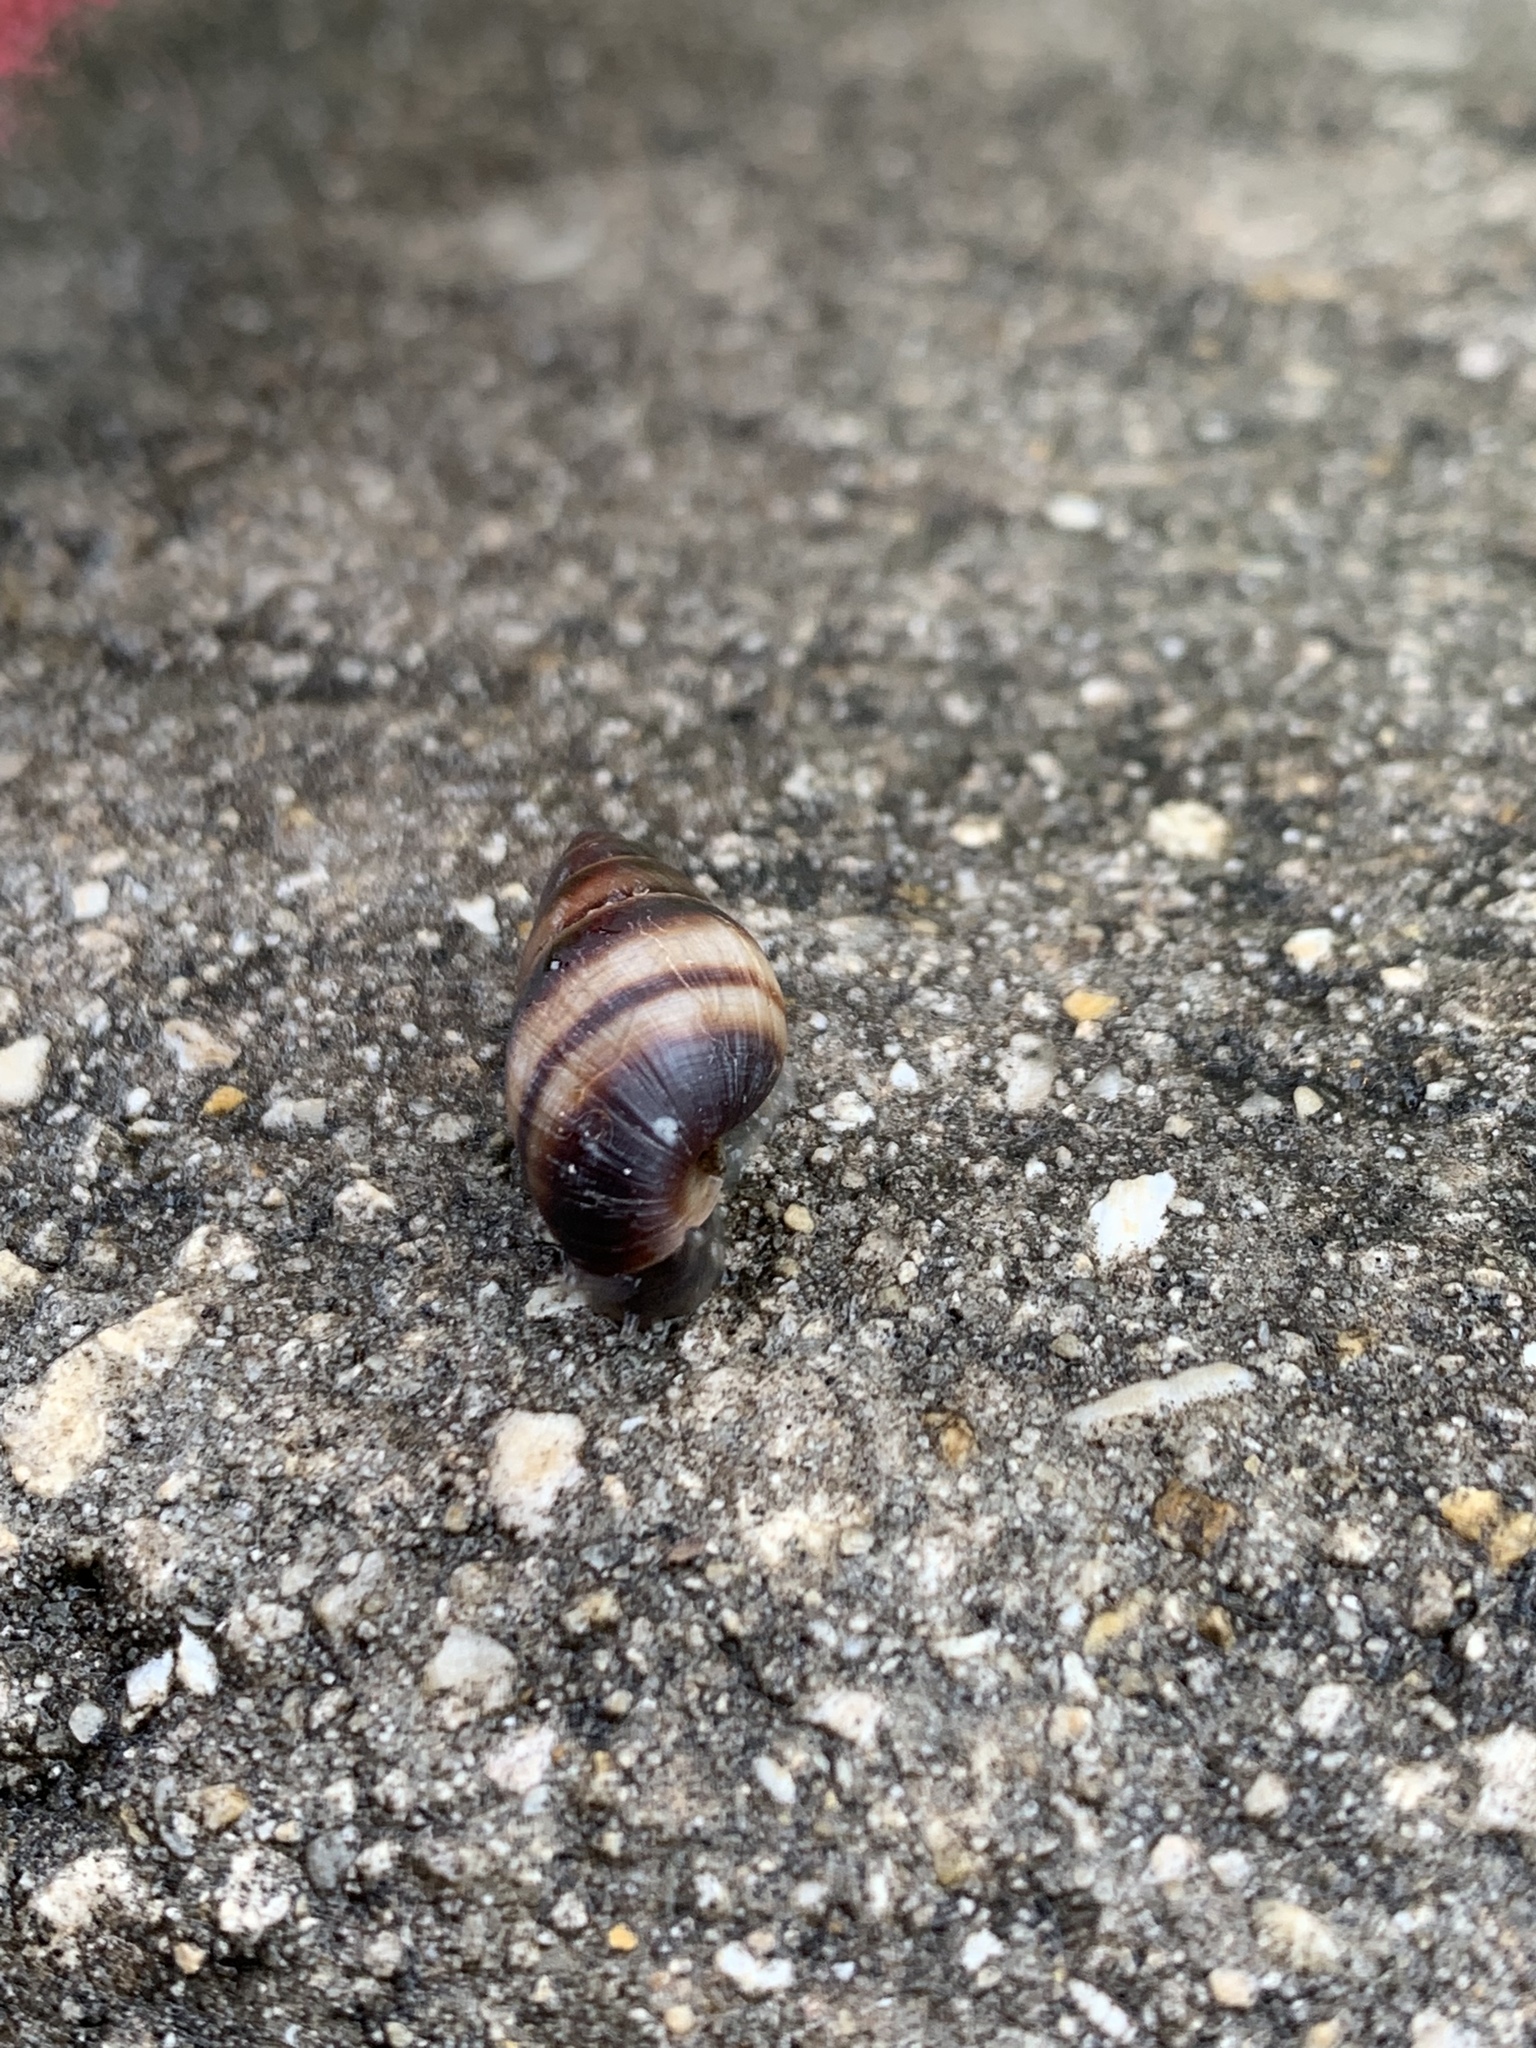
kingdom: Animalia
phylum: Mollusca
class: Gastropoda
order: Stylommatophora
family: Bulimulidae
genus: Bulimulus
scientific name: Bulimulus guadalupensis
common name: West indian bulimulus
